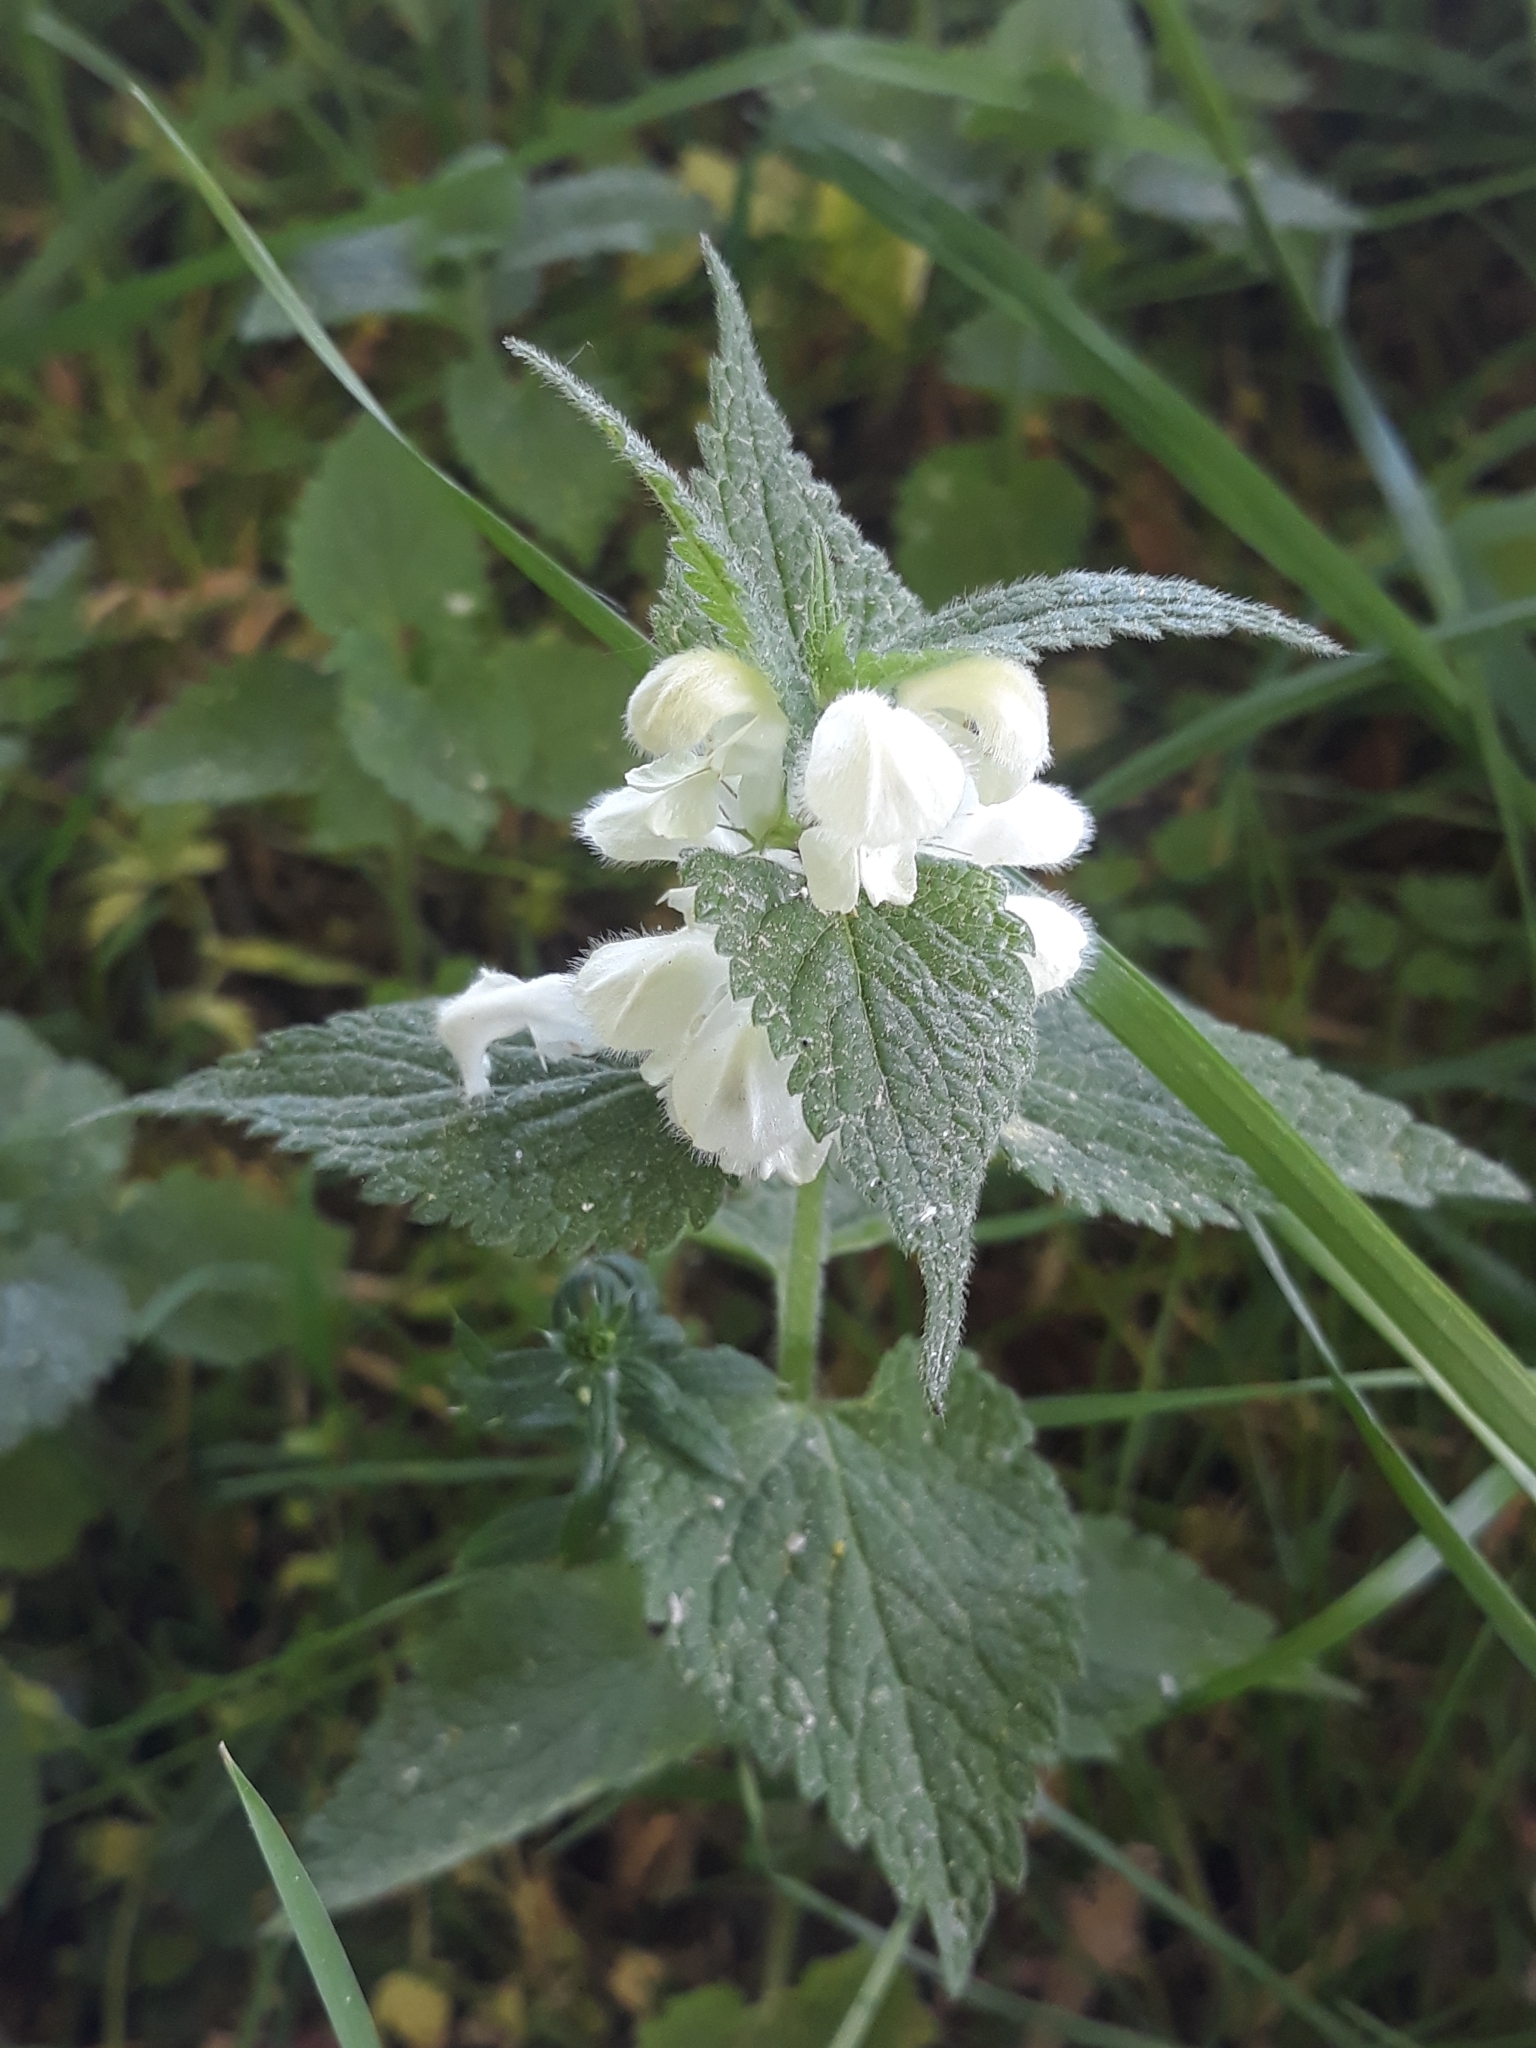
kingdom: Plantae
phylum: Tracheophyta
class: Magnoliopsida
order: Lamiales
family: Lamiaceae
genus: Lamium
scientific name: Lamium album
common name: White dead-nettle
